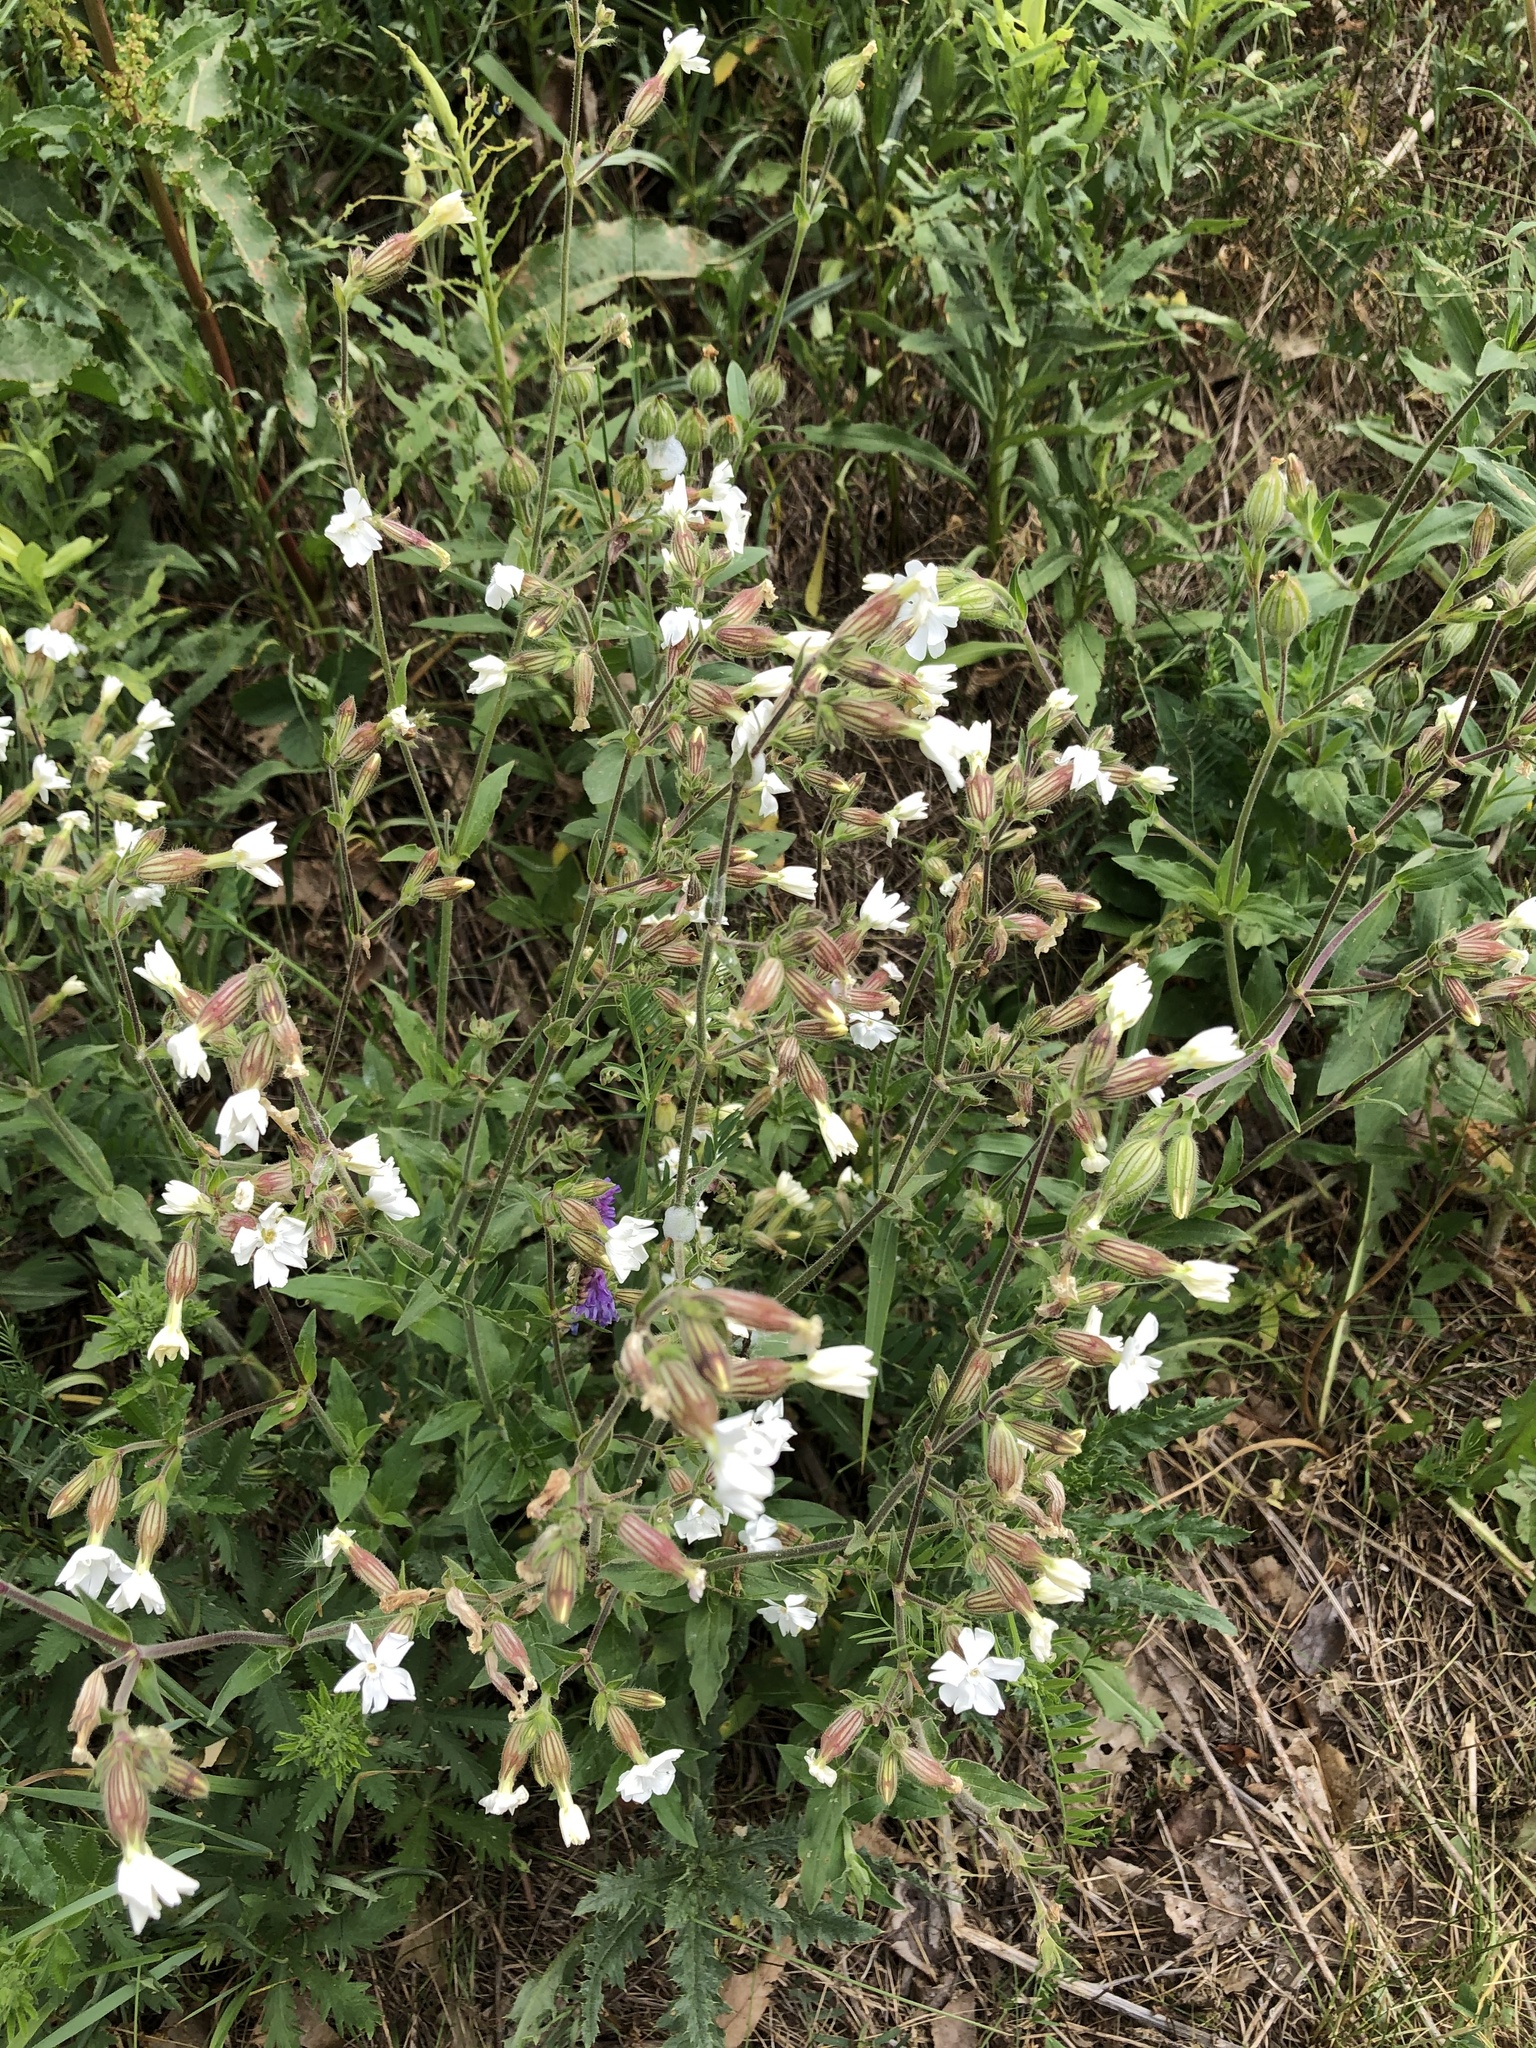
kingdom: Plantae
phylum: Tracheophyta
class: Magnoliopsida
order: Caryophyllales
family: Caryophyllaceae
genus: Silene
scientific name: Silene latifolia
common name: White campion
